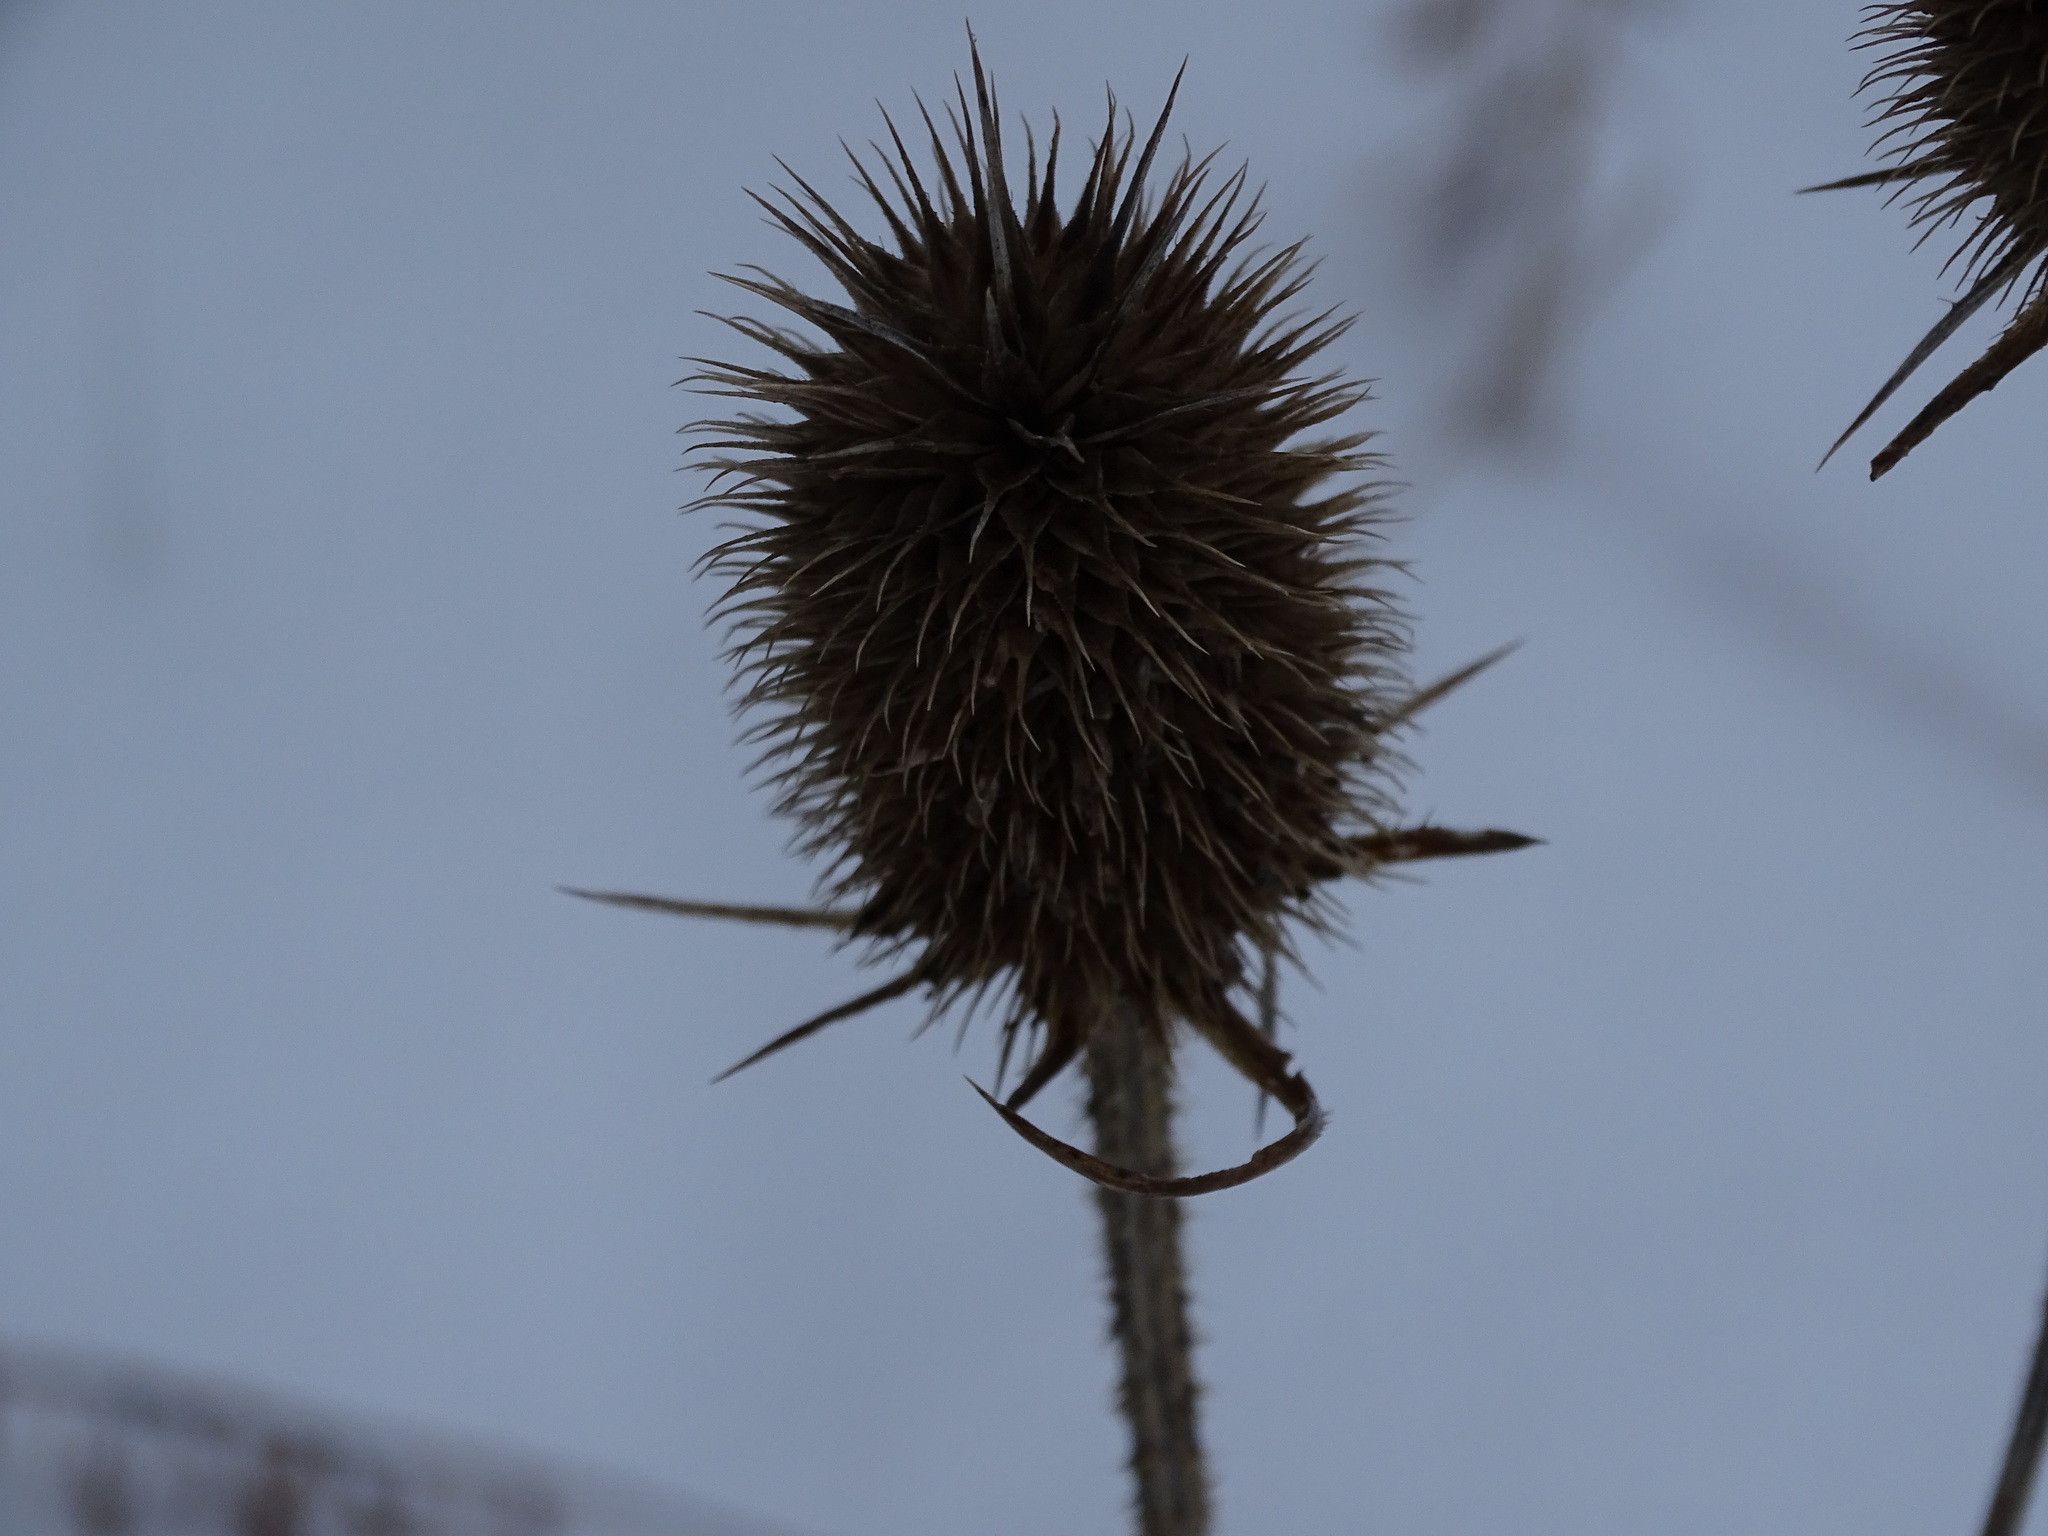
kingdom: Plantae
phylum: Tracheophyta
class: Magnoliopsida
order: Dipsacales
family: Caprifoliaceae
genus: Dipsacus
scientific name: Dipsacus laciniatus
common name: Cut-leaved teasel
